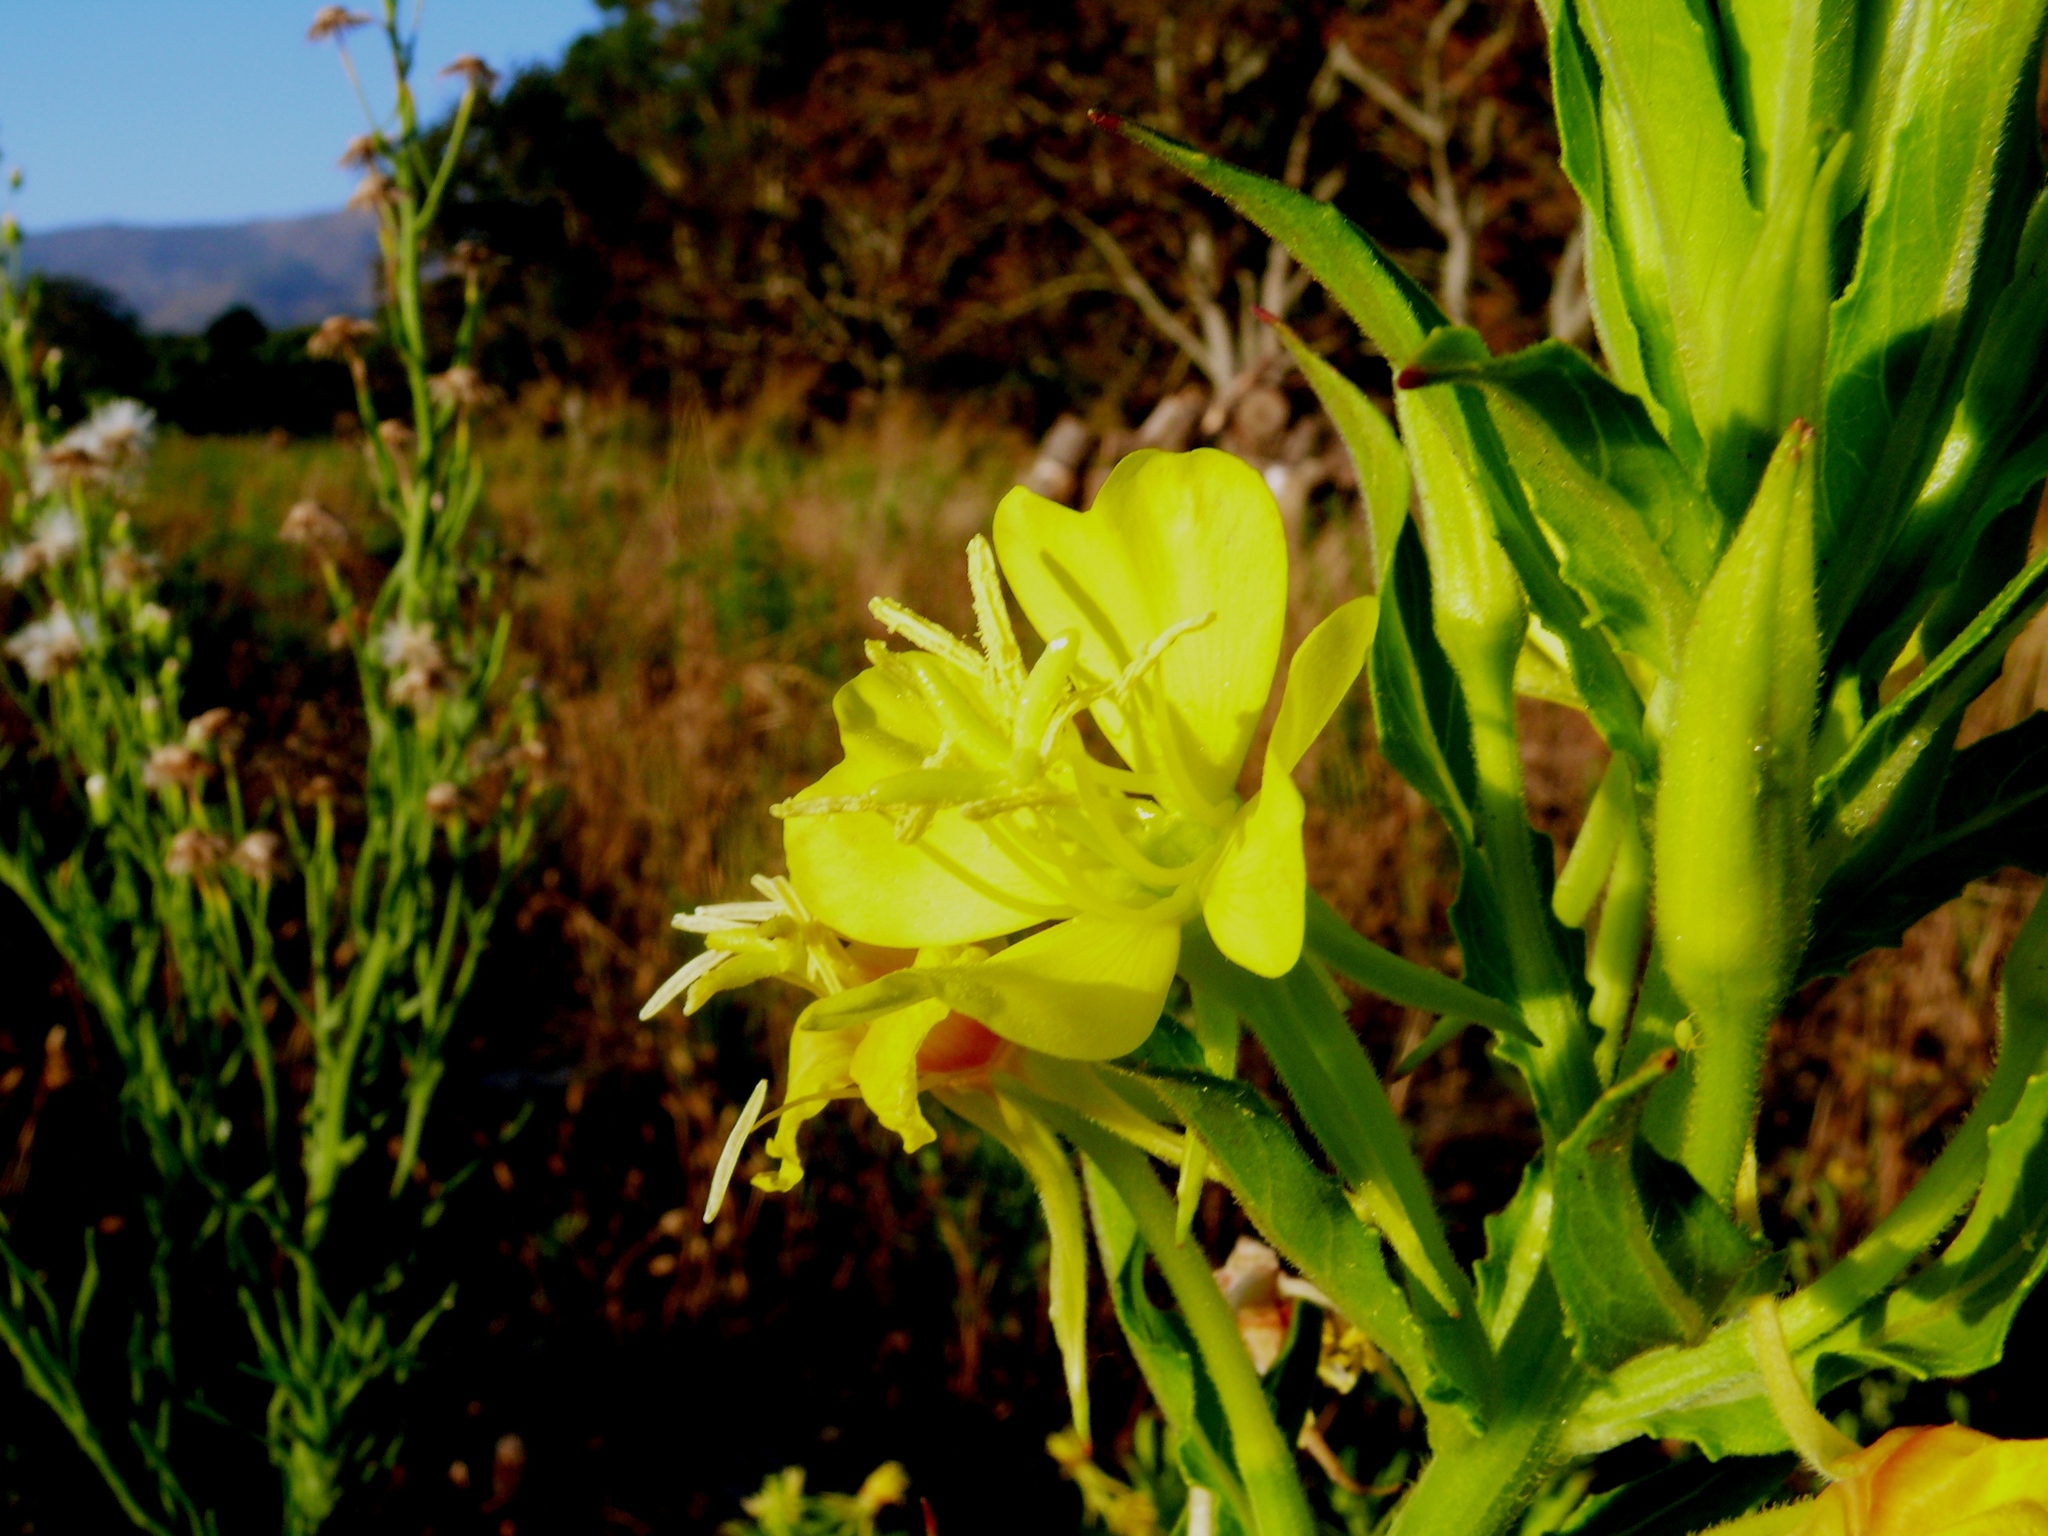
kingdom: Plantae
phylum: Tracheophyta
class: Magnoliopsida
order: Myrtales
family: Onagraceae
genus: Oenothera
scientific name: Oenothera jamesii
